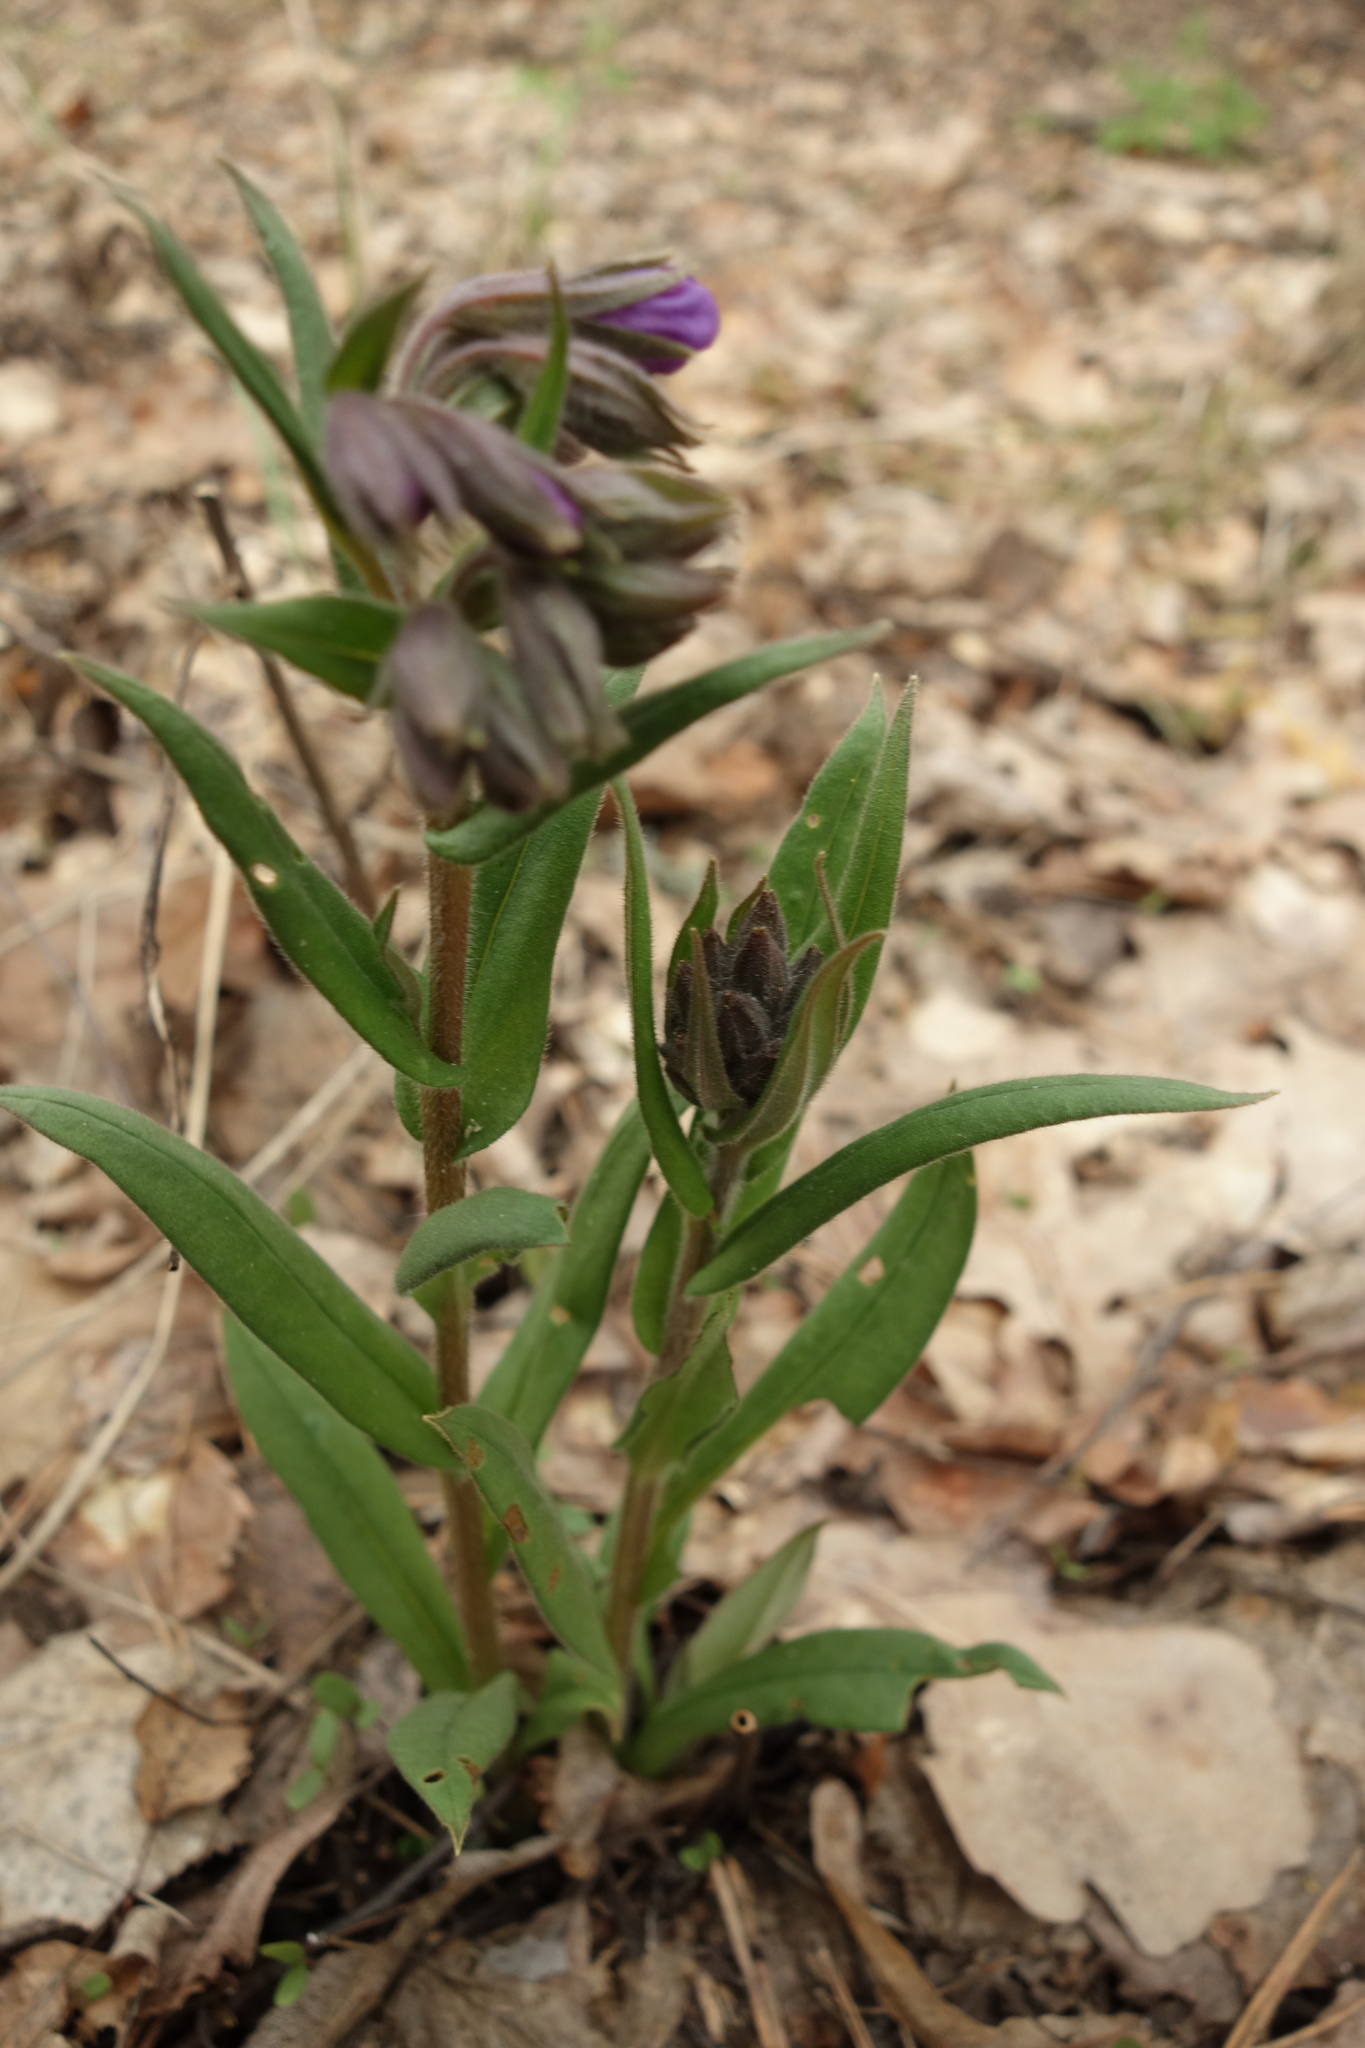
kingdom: Plantae
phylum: Tracheophyta
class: Magnoliopsida
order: Boraginales
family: Boraginaceae
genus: Pulmonaria
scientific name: Pulmonaria angustifolia
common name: Blue cowslip
